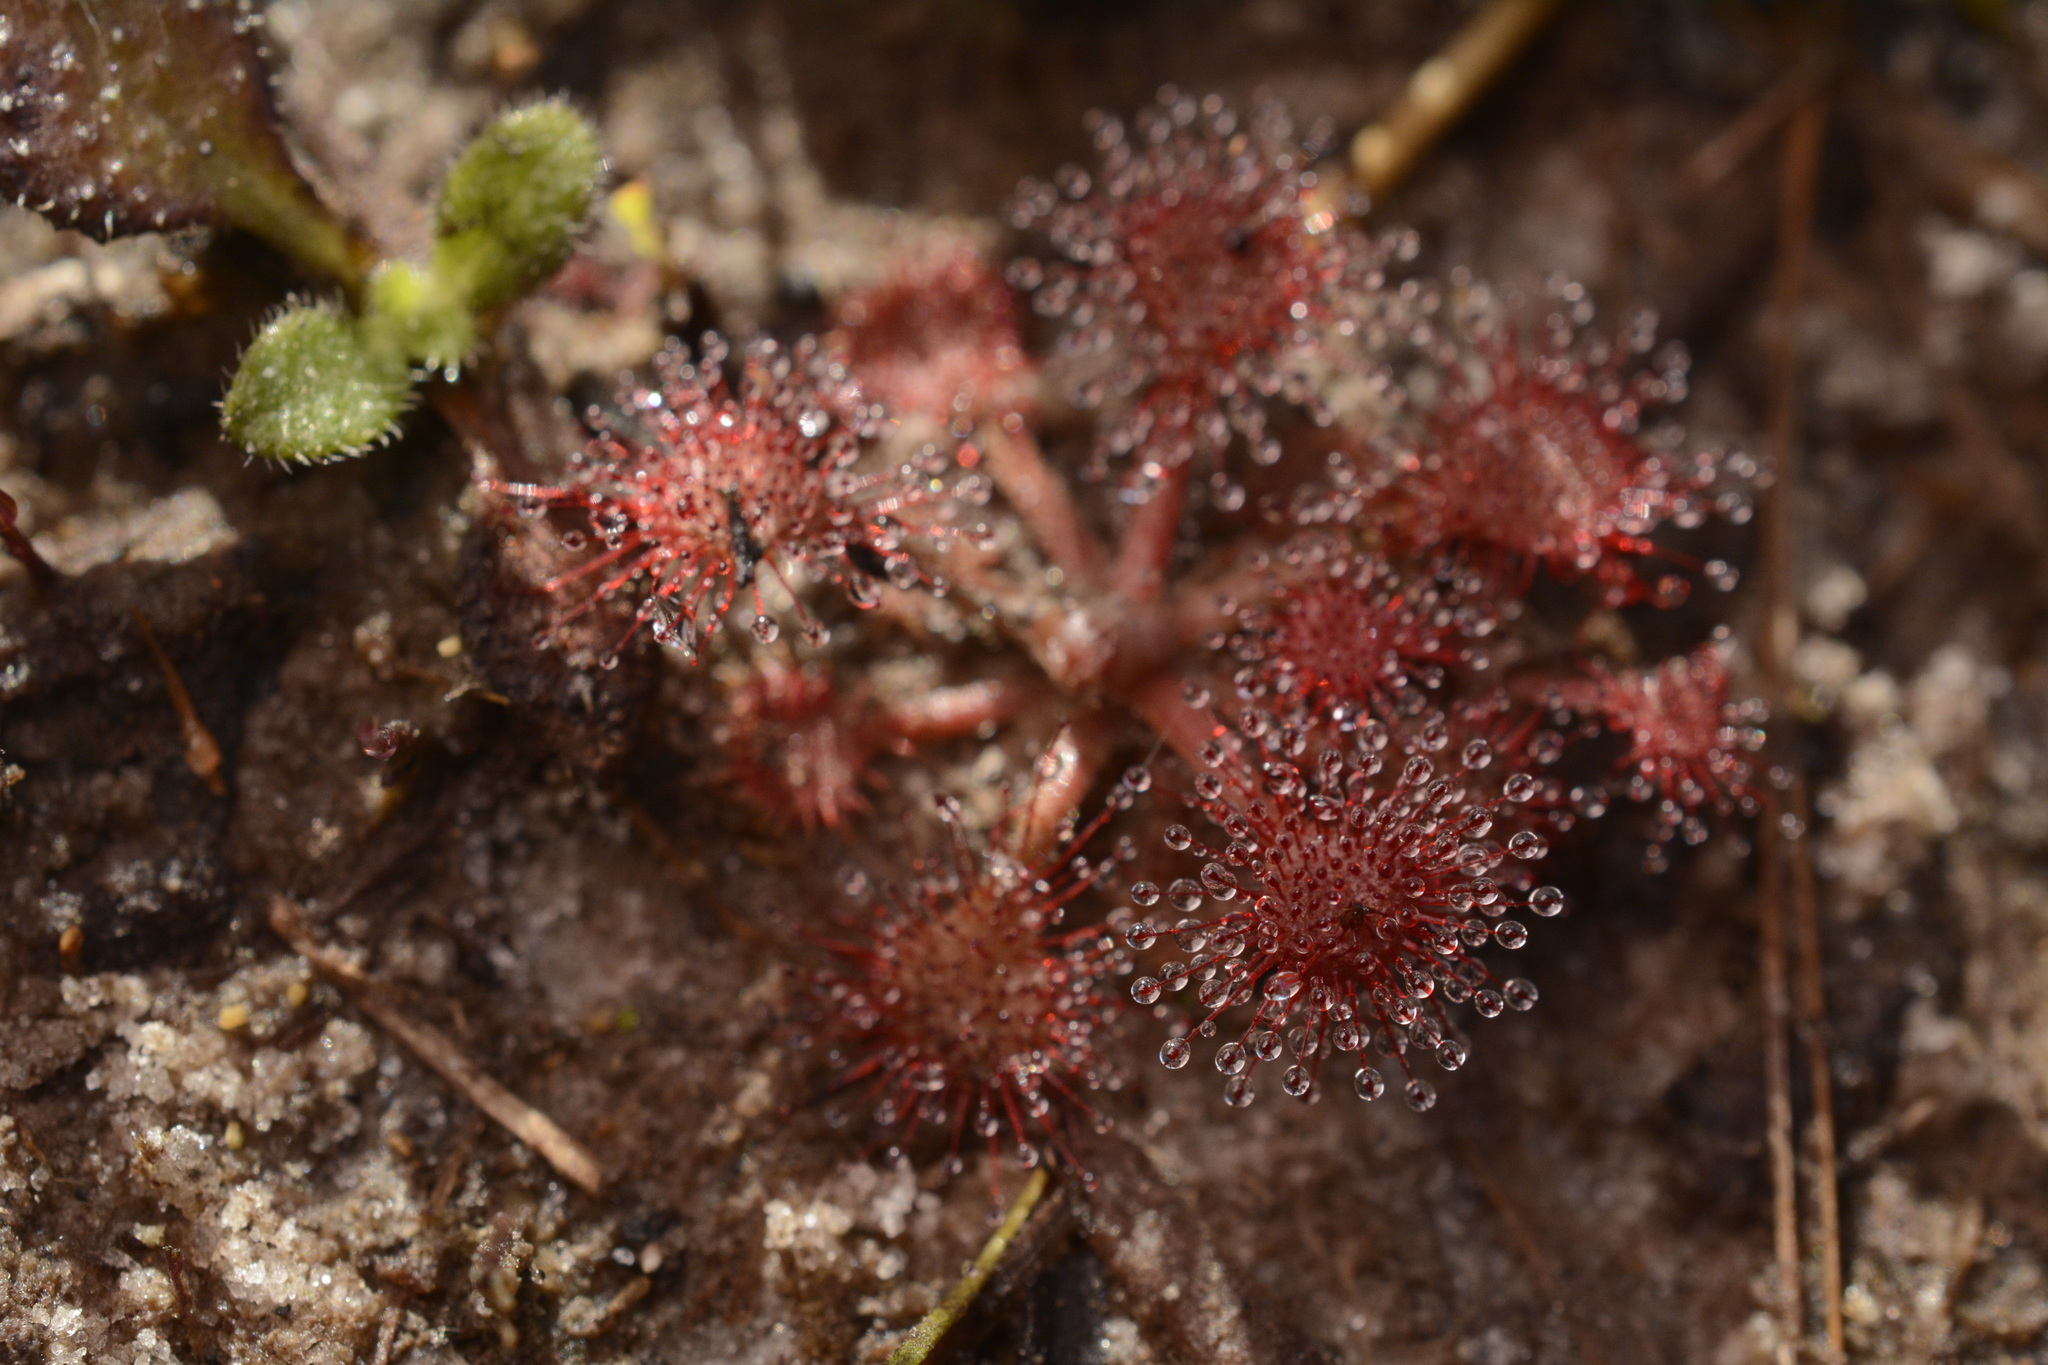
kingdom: Plantae
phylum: Tracheophyta
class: Magnoliopsida
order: Caryophyllales
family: Droseraceae
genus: Drosera
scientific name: Drosera capillaris
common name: Pink sundew
